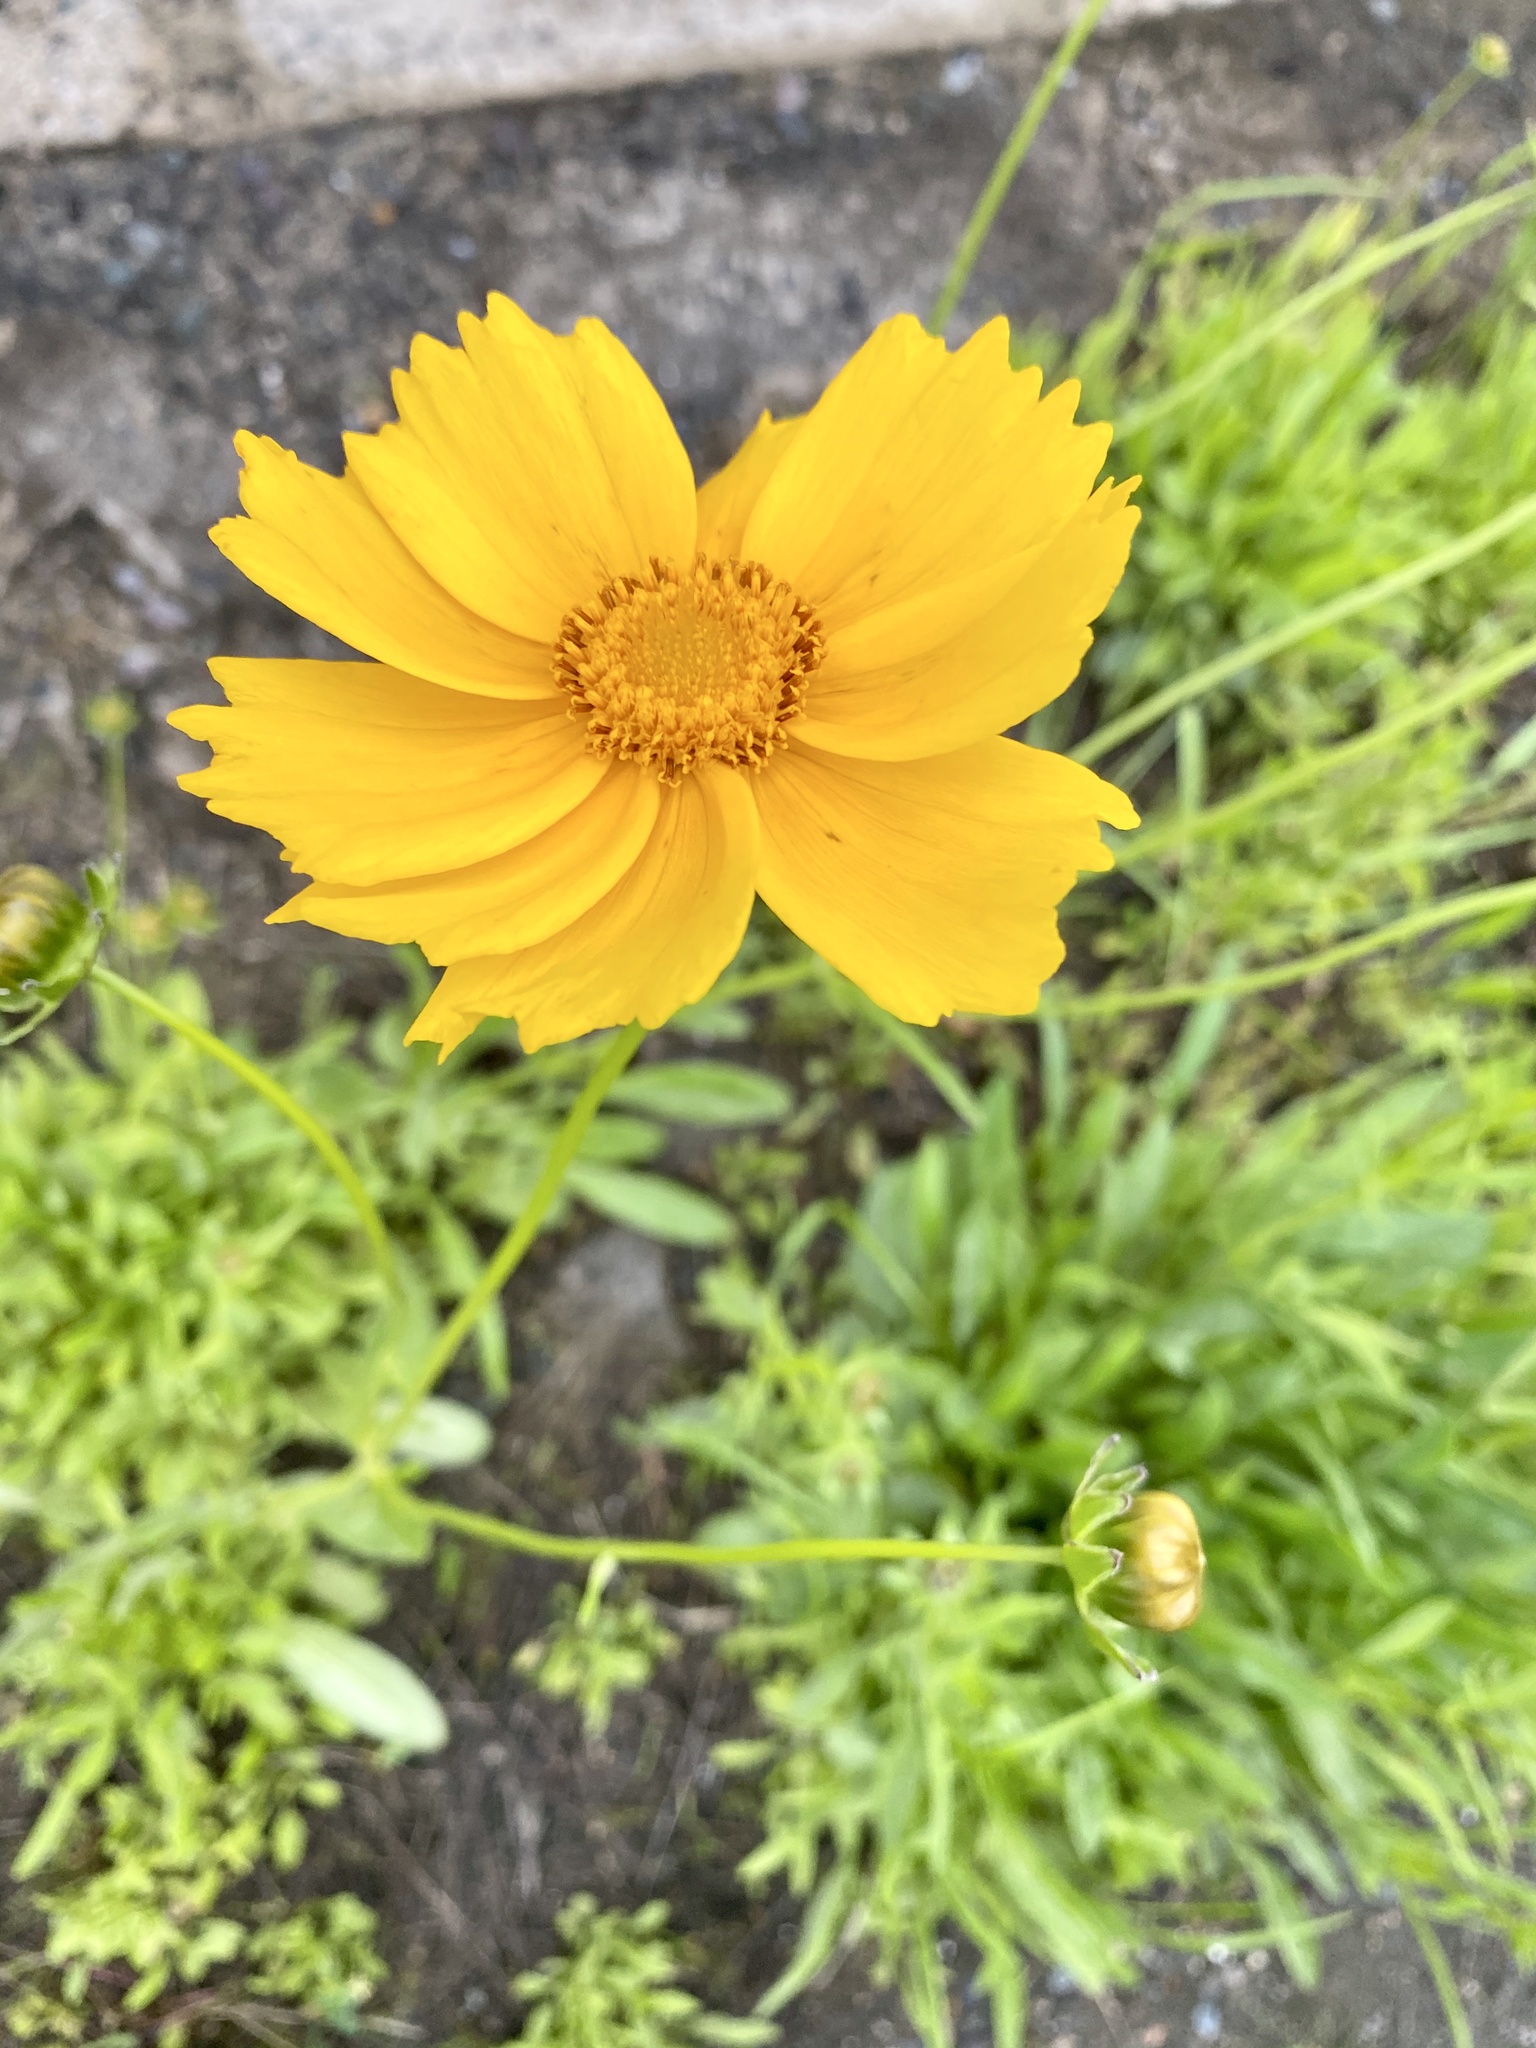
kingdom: Plantae
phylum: Tracheophyta
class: Magnoliopsida
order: Asterales
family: Asteraceae
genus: Coreopsis
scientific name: Coreopsis lanceolata
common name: Garden coreopsis
